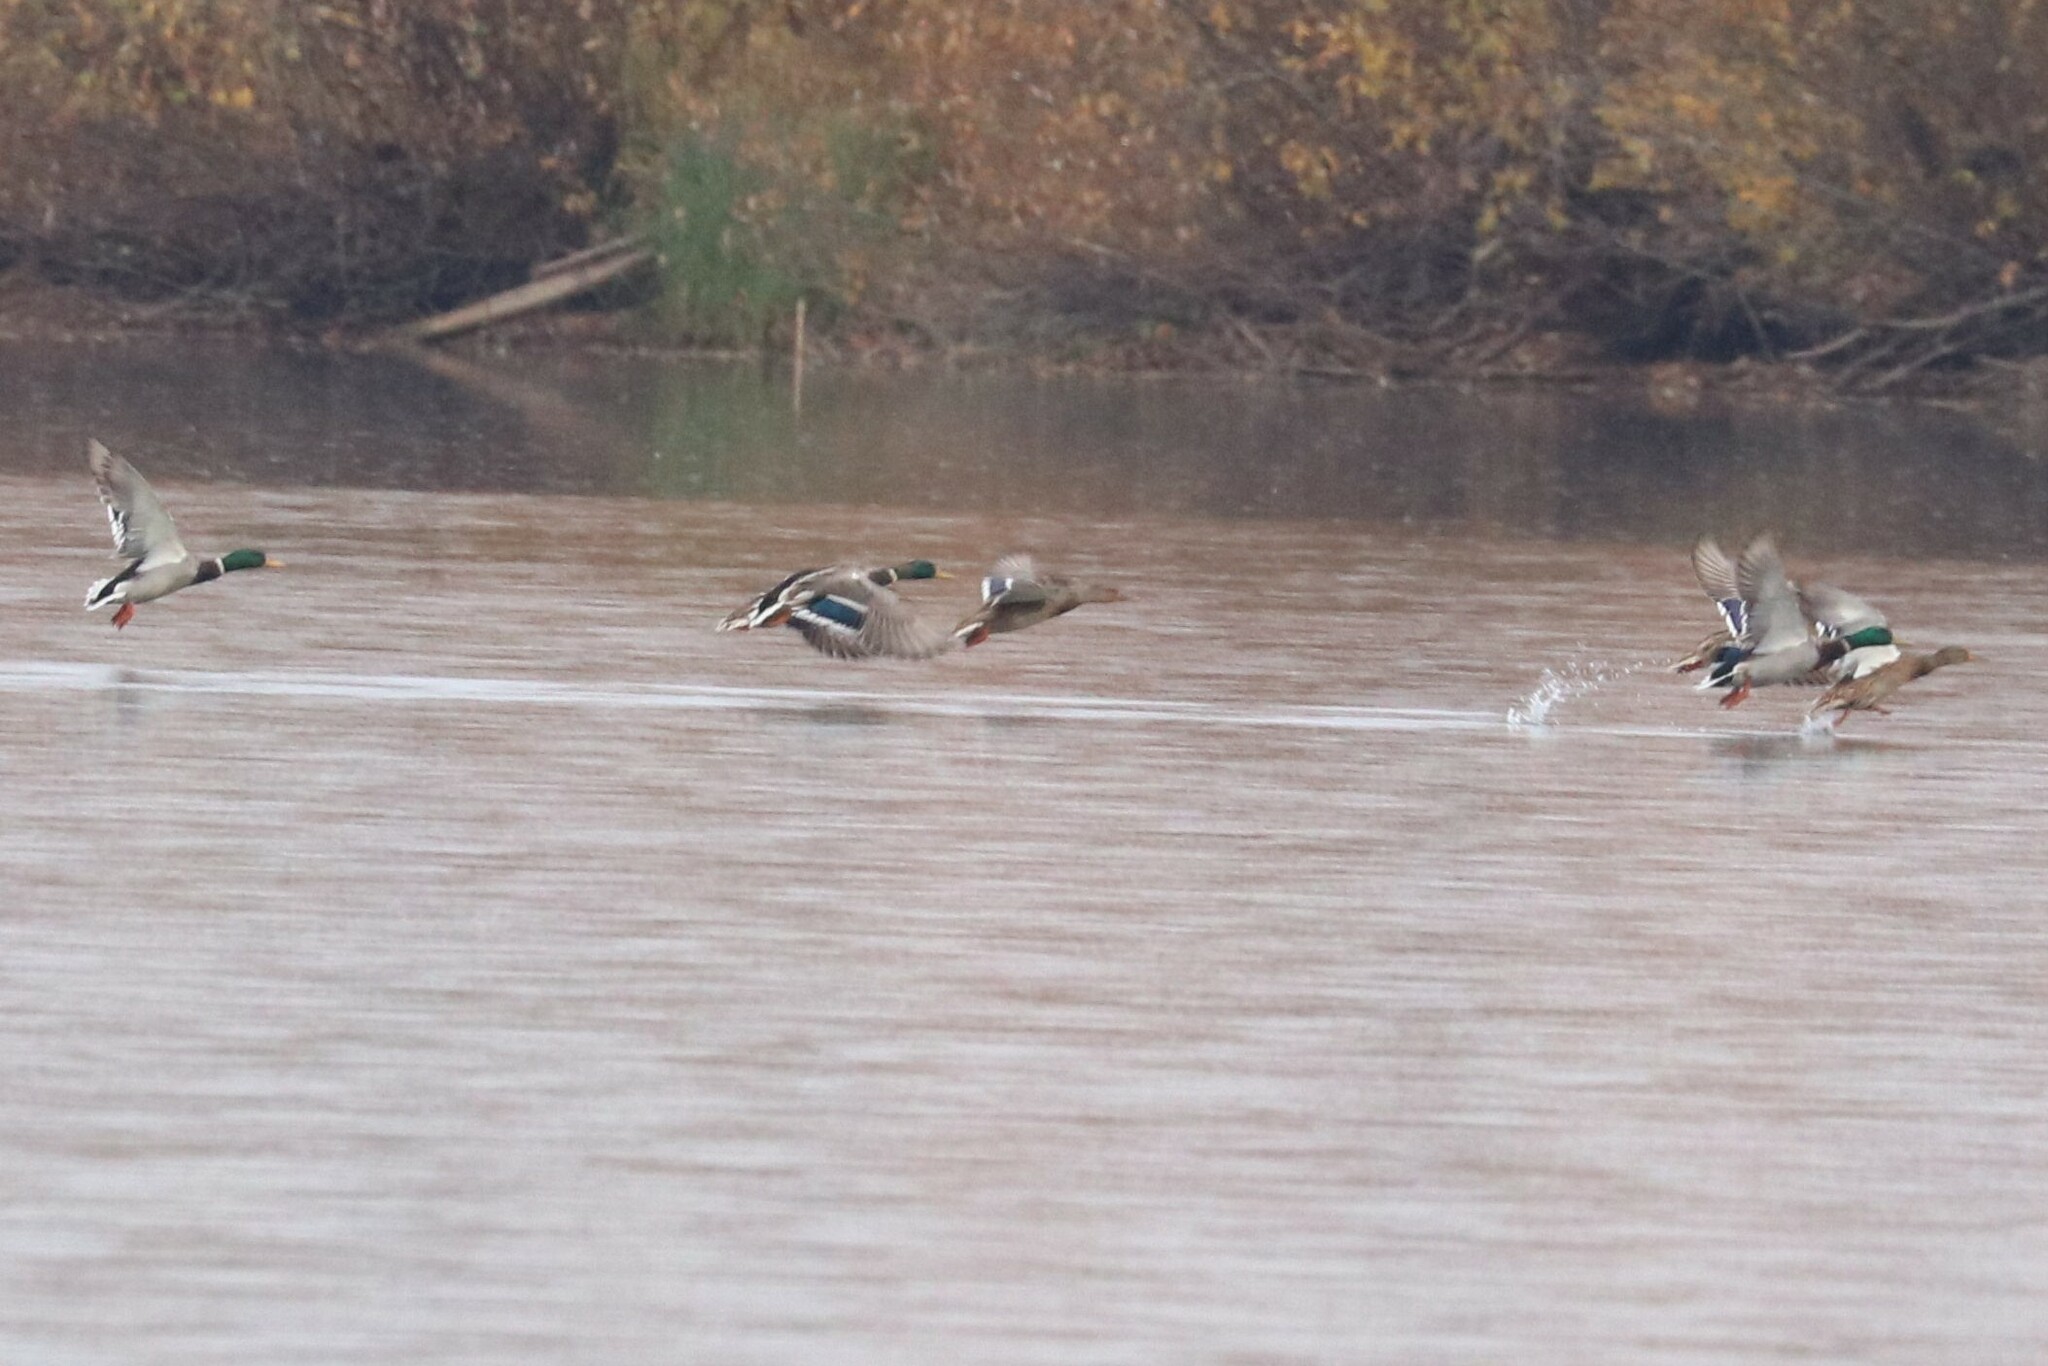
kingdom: Animalia
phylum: Chordata
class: Aves
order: Anseriformes
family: Anatidae
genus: Anas
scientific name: Anas platyrhynchos
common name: Mallard
